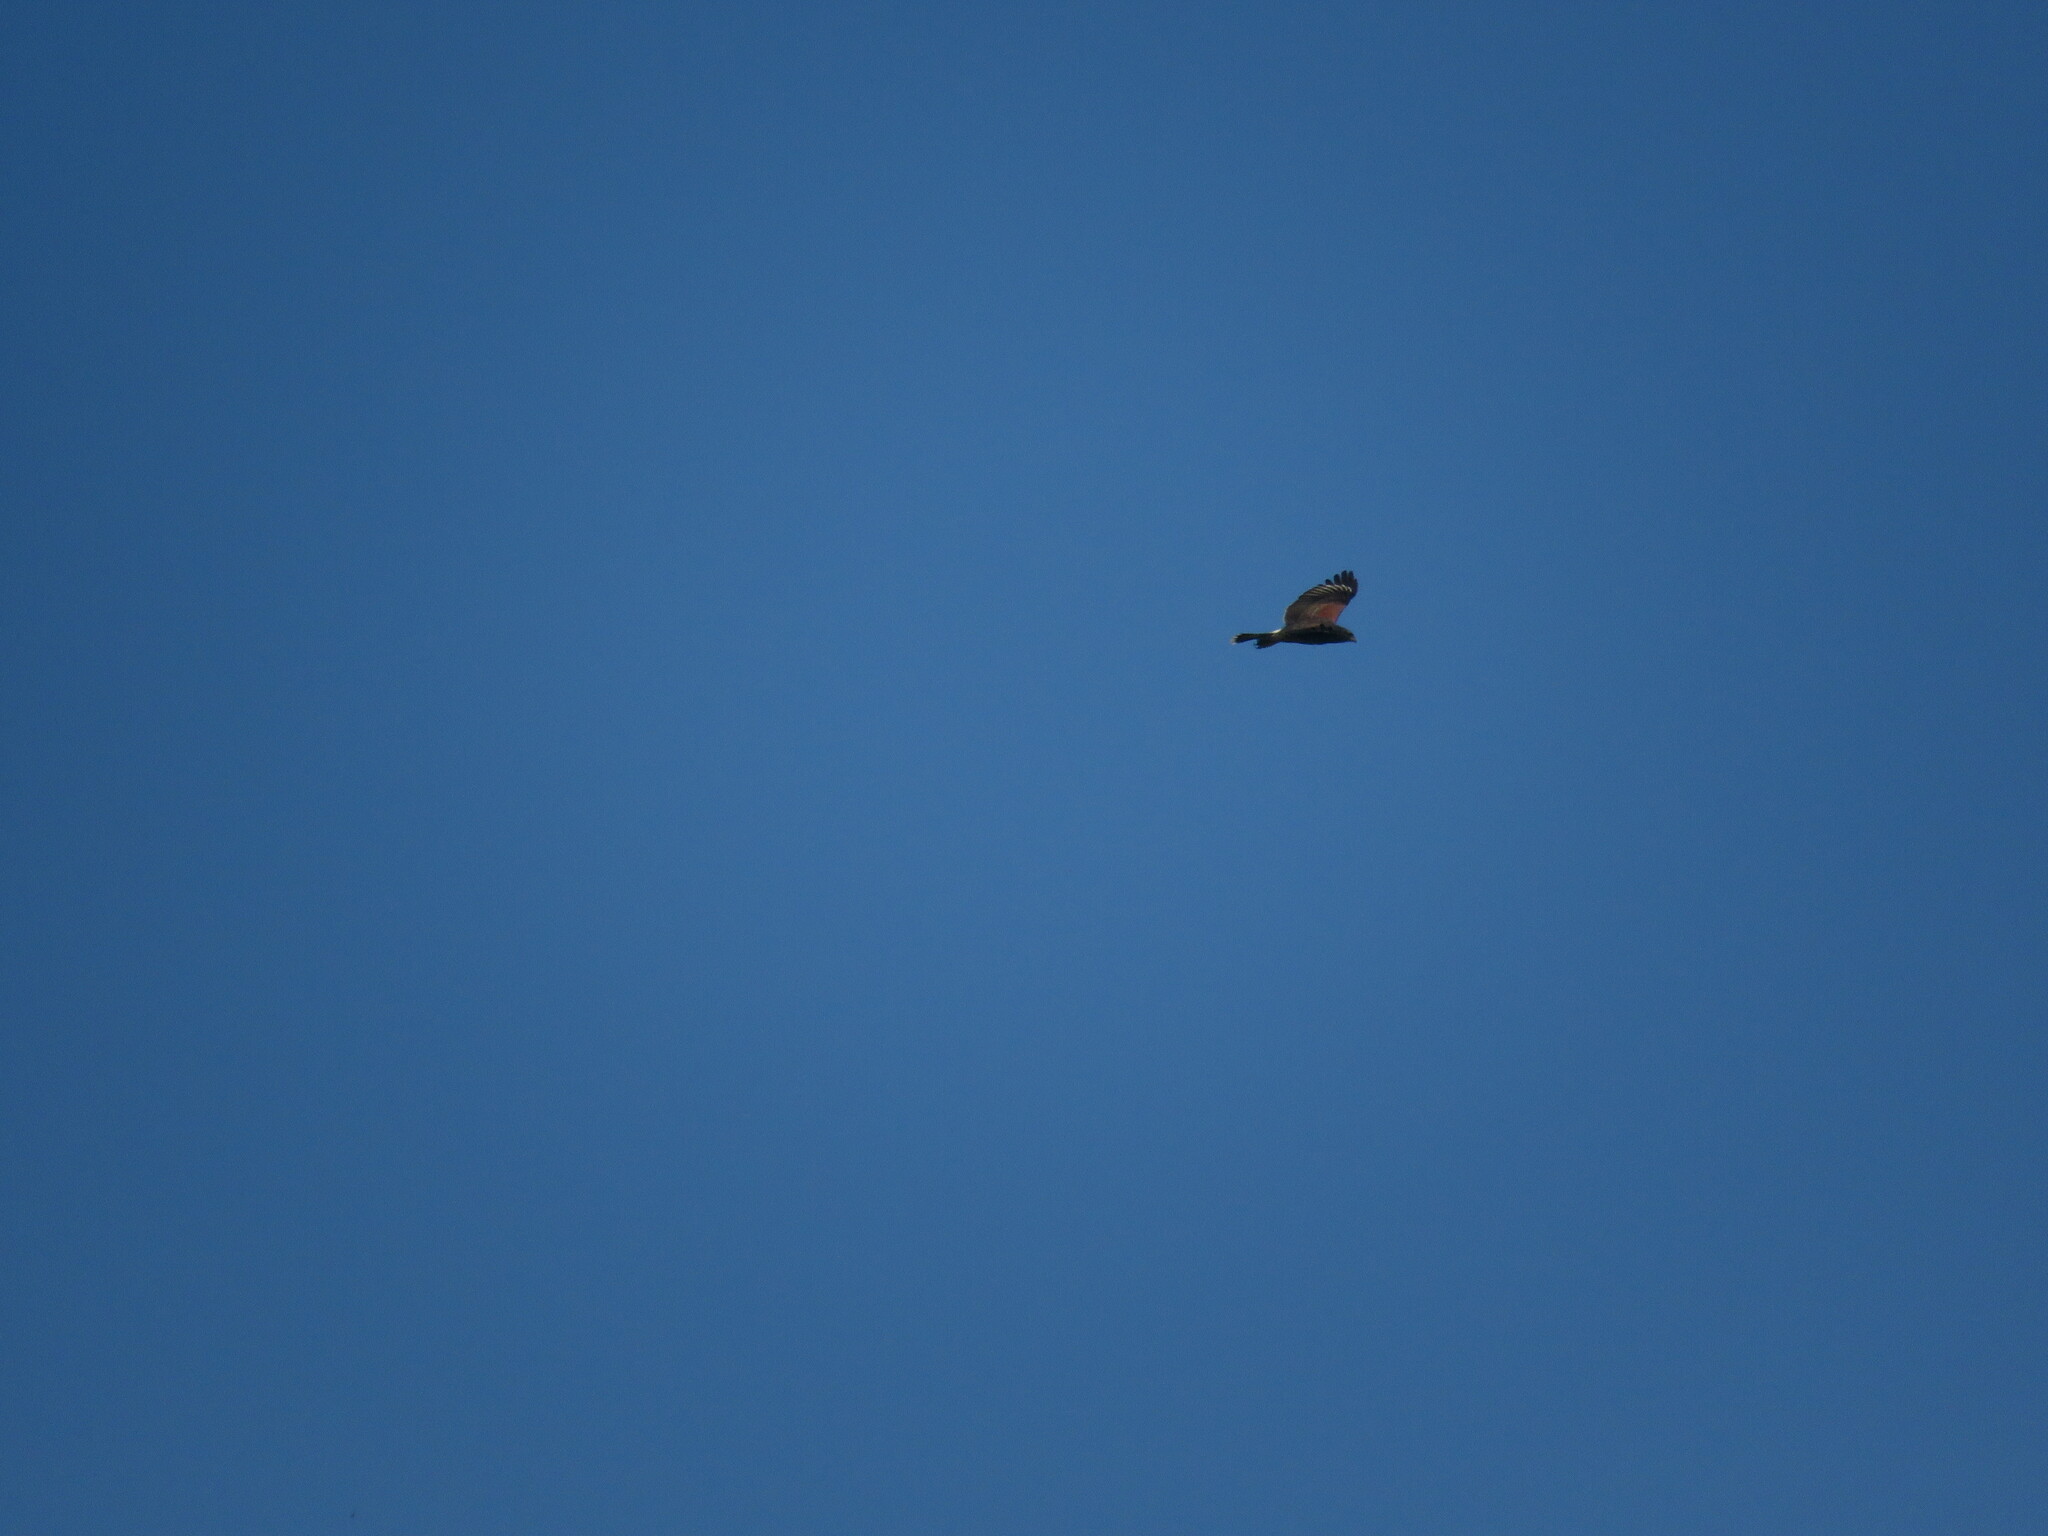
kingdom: Animalia
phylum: Chordata
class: Aves
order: Accipitriformes
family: Accipitridae
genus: Parabuteo
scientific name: Parabuteo unicinctus
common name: Harris's hawk
